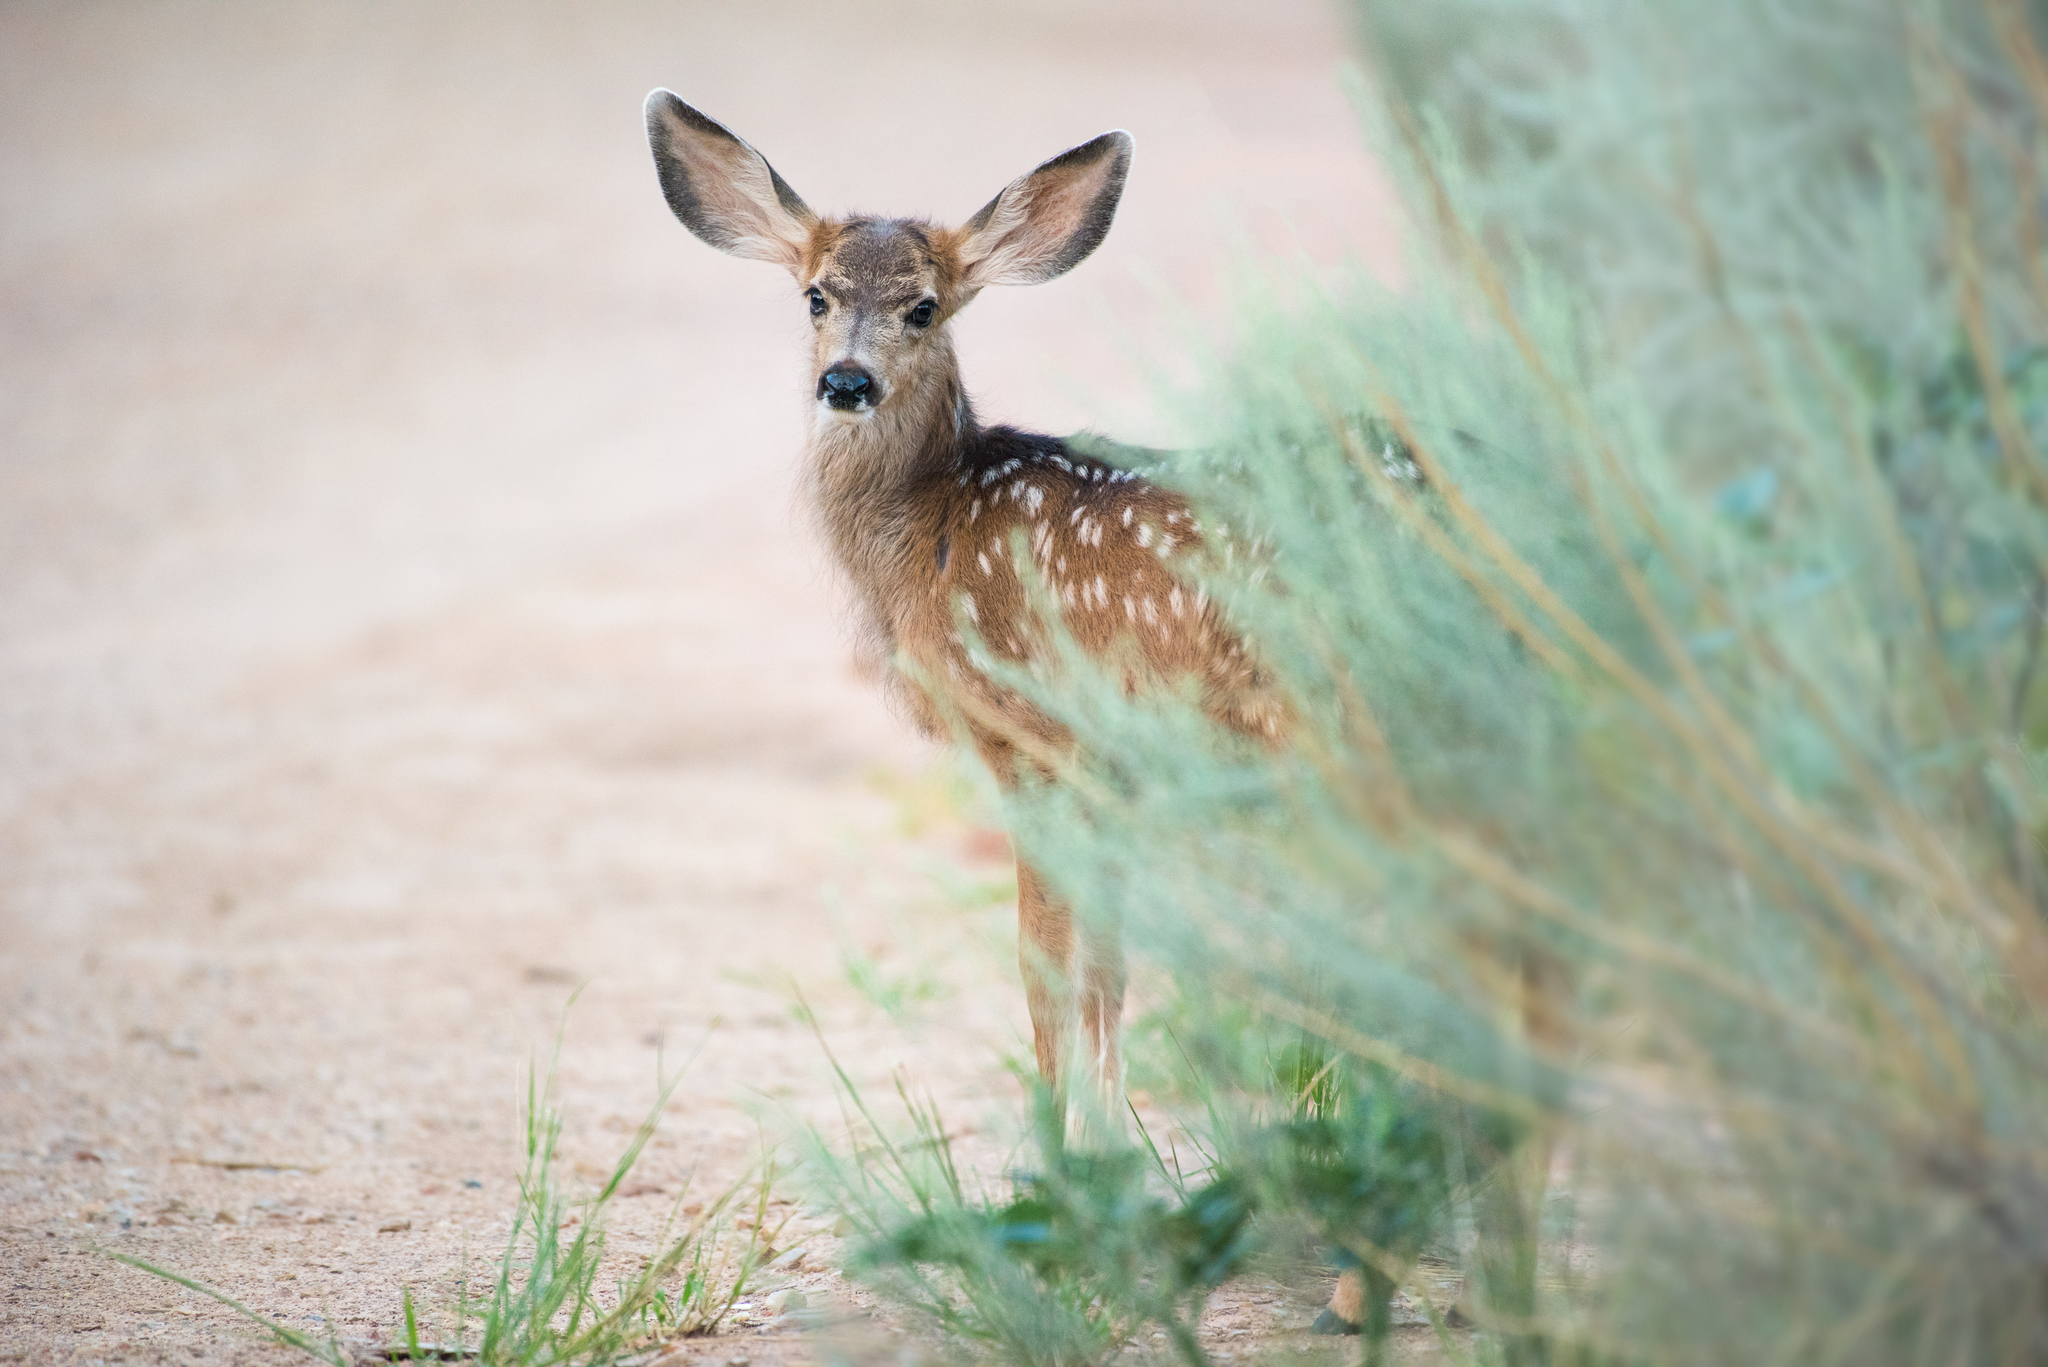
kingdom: Animalia
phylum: Chordata
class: Mammalia
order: Artiodactyla
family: Cervidae
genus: Odocoileus
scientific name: Odocoileus hemionus
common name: Mule deer
